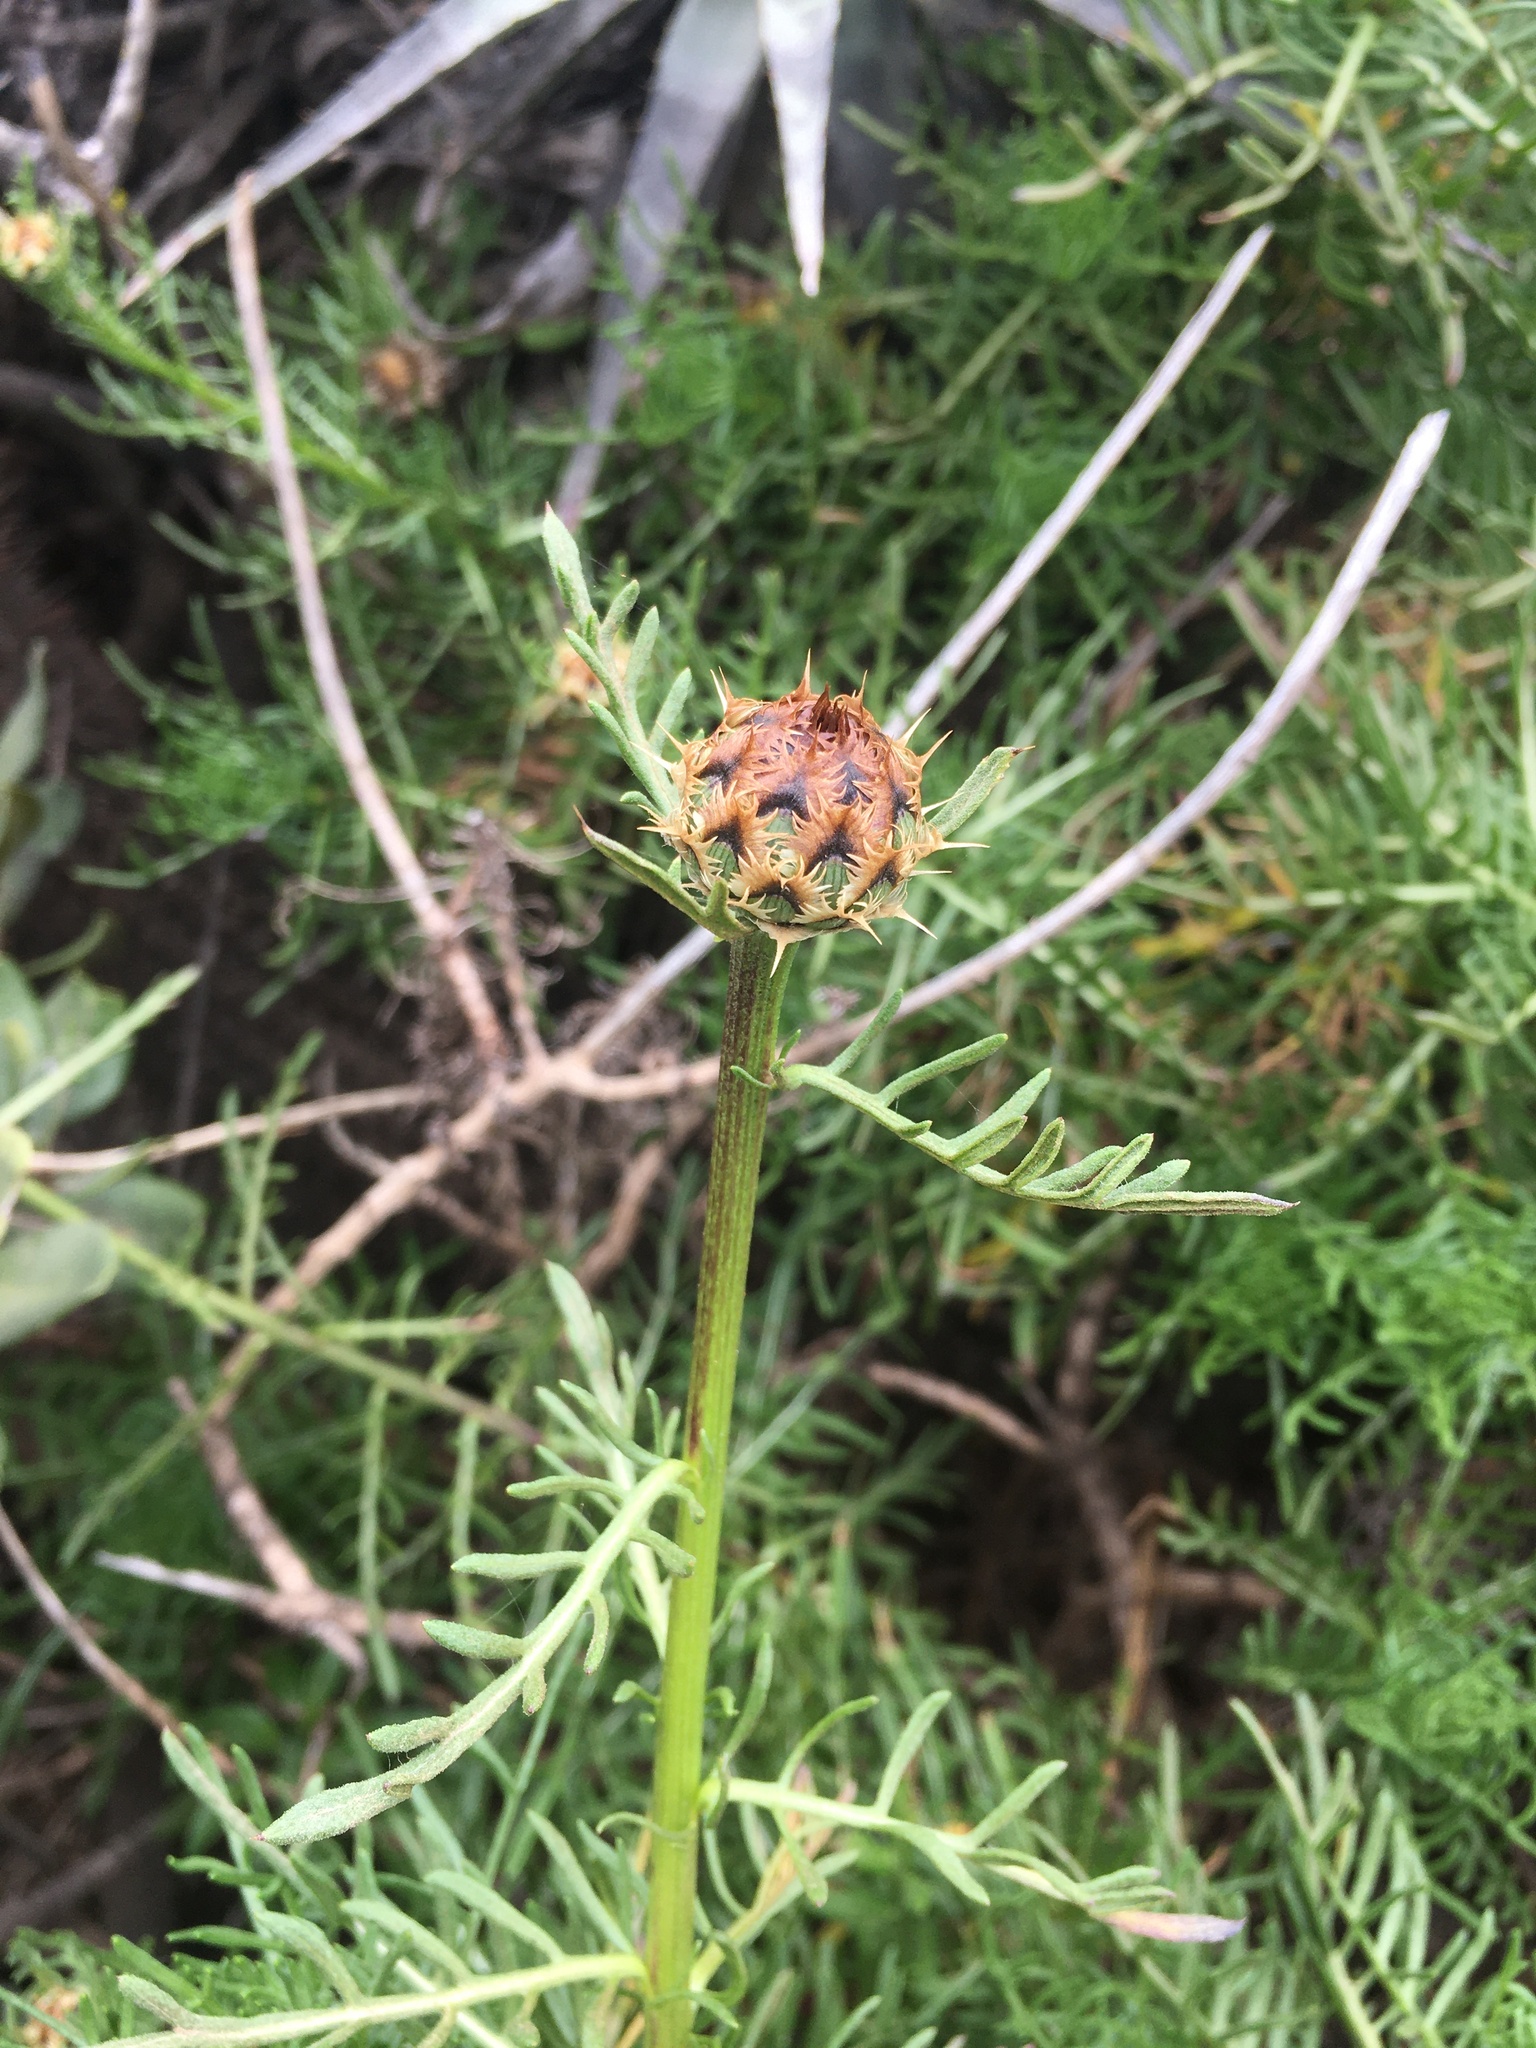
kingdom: Plantae
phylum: Tracheophyta
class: Magnoliopsida
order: Asterales
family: Asteraceae
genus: Plectocephalus
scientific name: Plectocephalus chilensis
